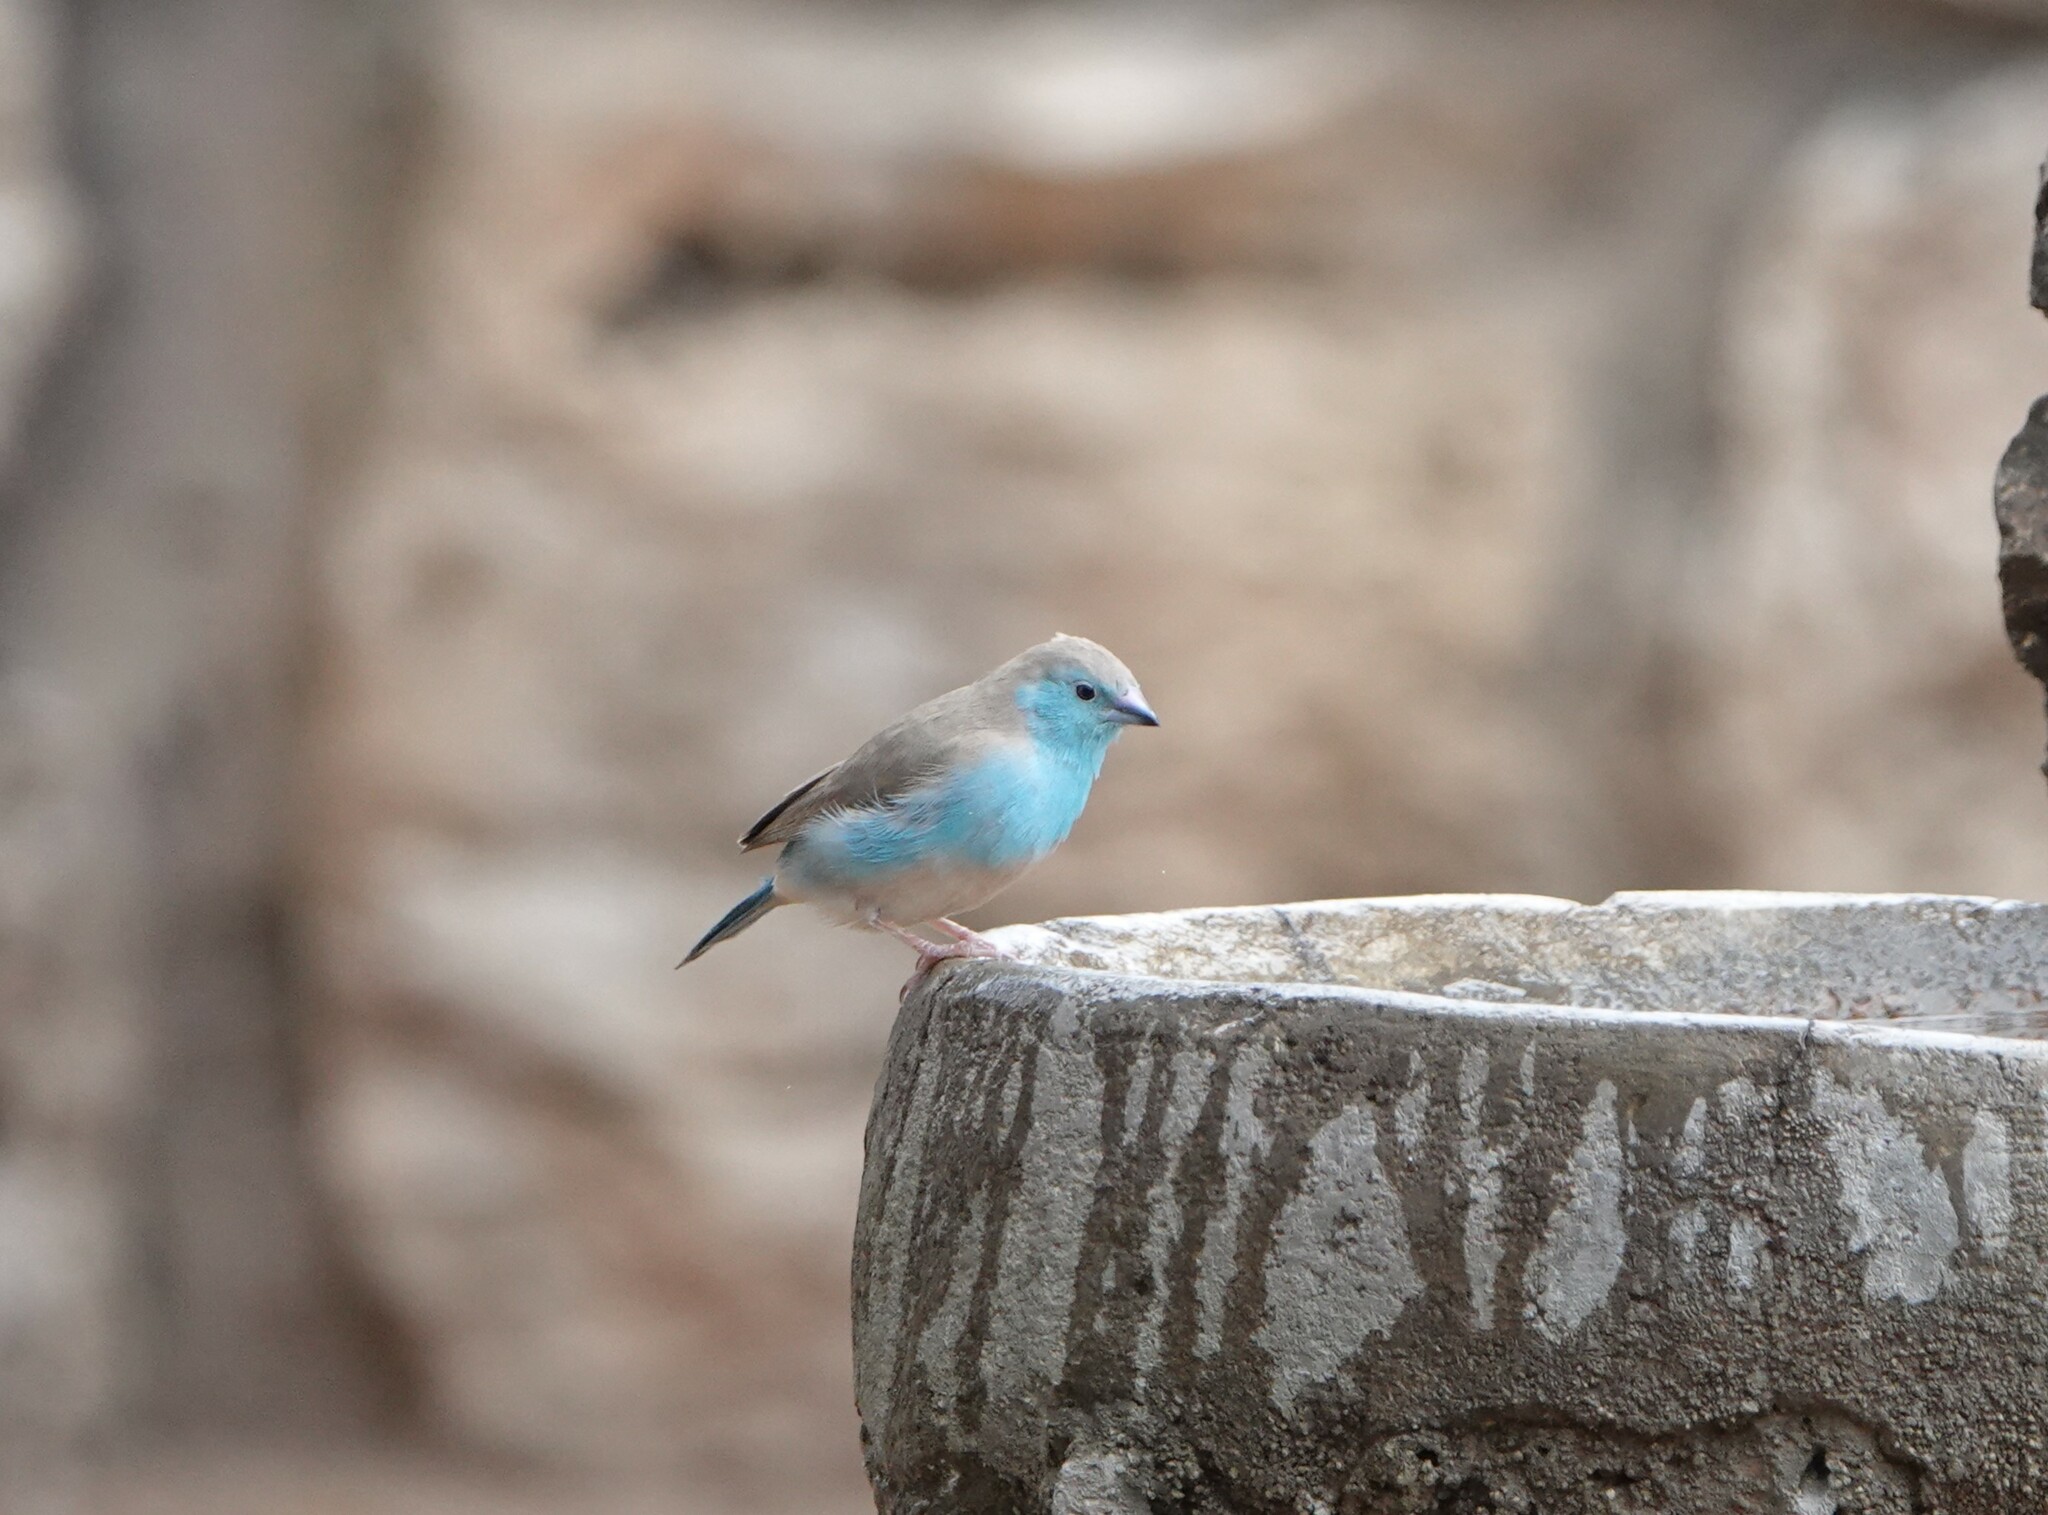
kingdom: Animalia
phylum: Chordata
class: Aves
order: Passeriformes
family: Estrildidae
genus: Uraeginthus
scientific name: Uraeginthus angolensis
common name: Blue waxbill
